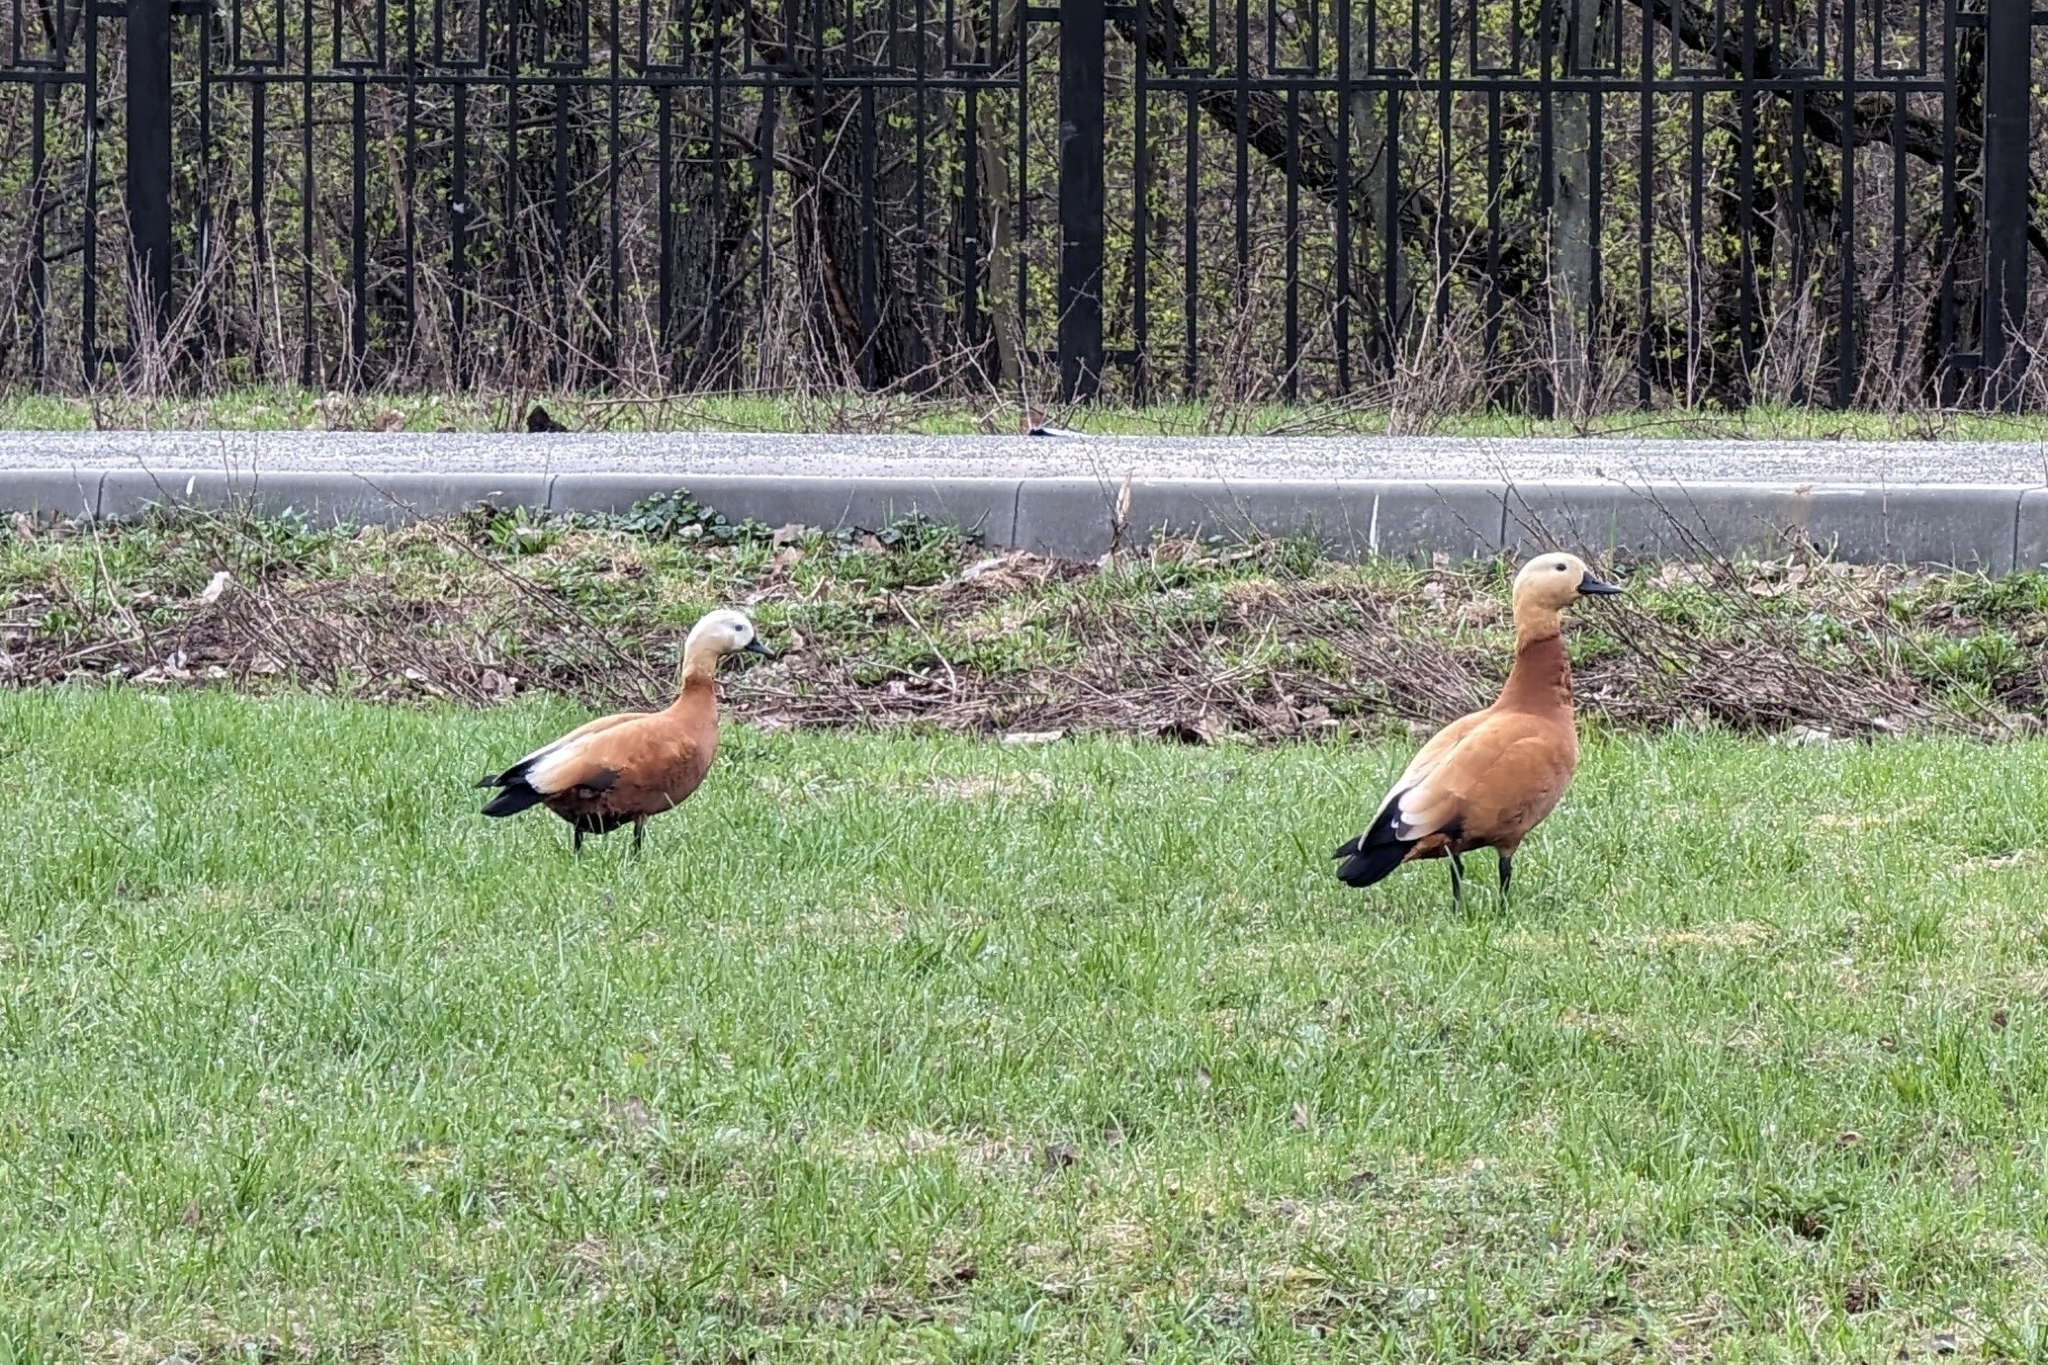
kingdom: Animalia
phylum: Chordata
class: Aves
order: Anseriformes
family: Anatidae
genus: Tadorna
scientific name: Tadorna ferruginea
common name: Ruddy shelduck
